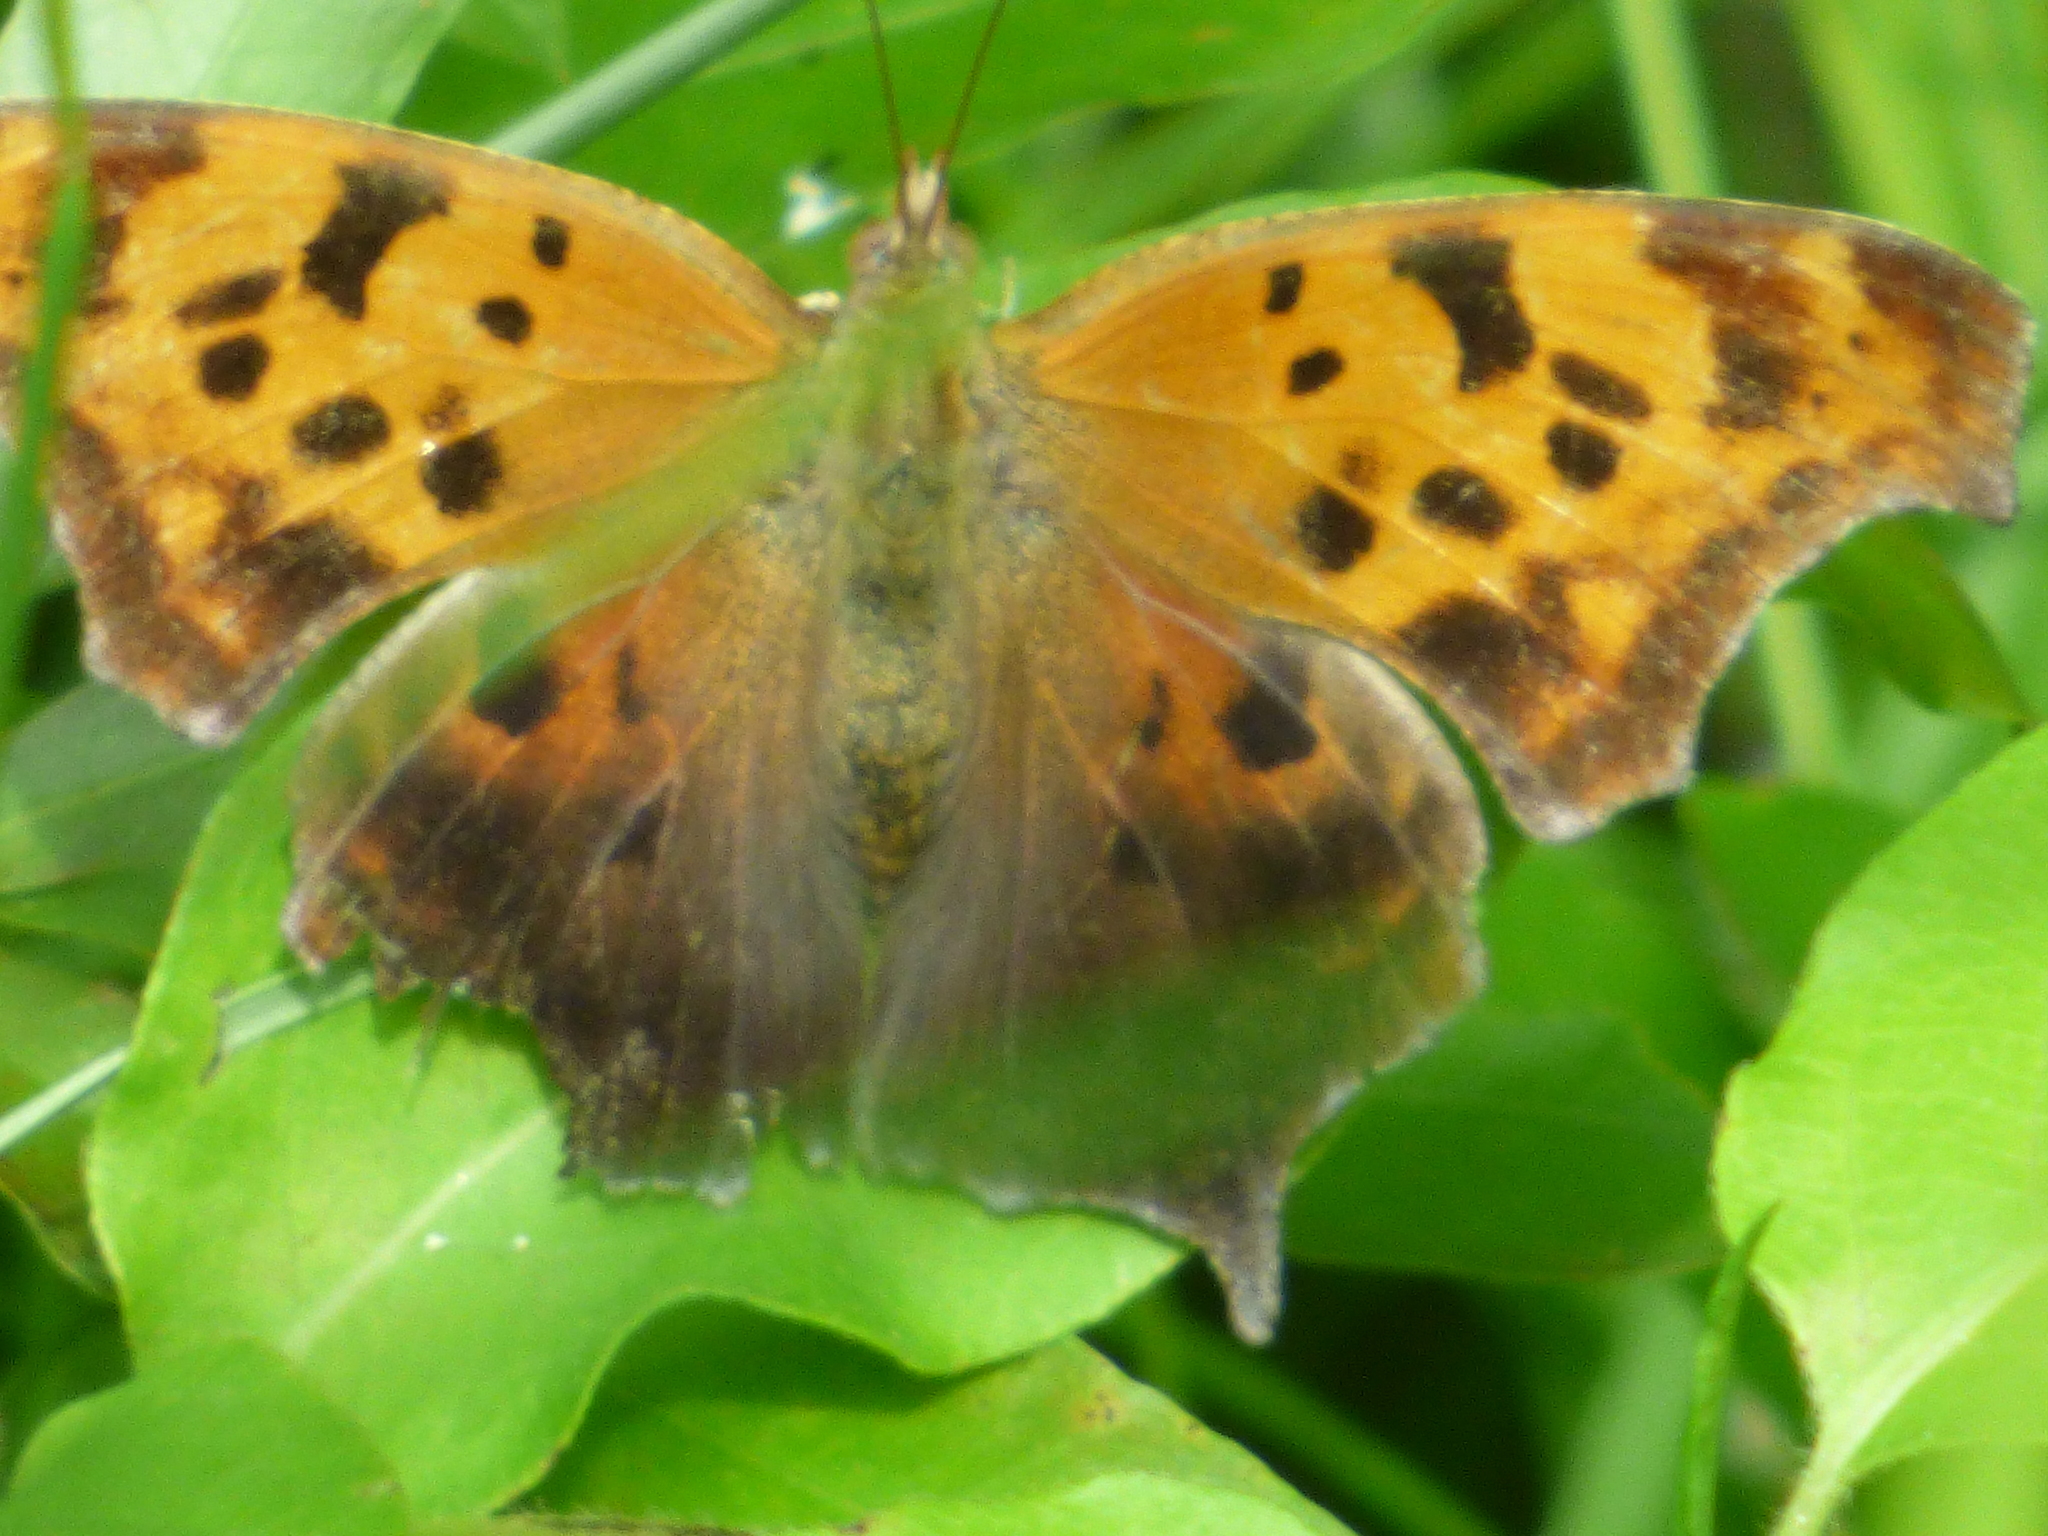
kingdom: Animalia
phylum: Arthropoda
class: Insecta
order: Lepidoptera
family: Nymphalidae
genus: Polygonia
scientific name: Polygonia interrogationis
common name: Question mark
